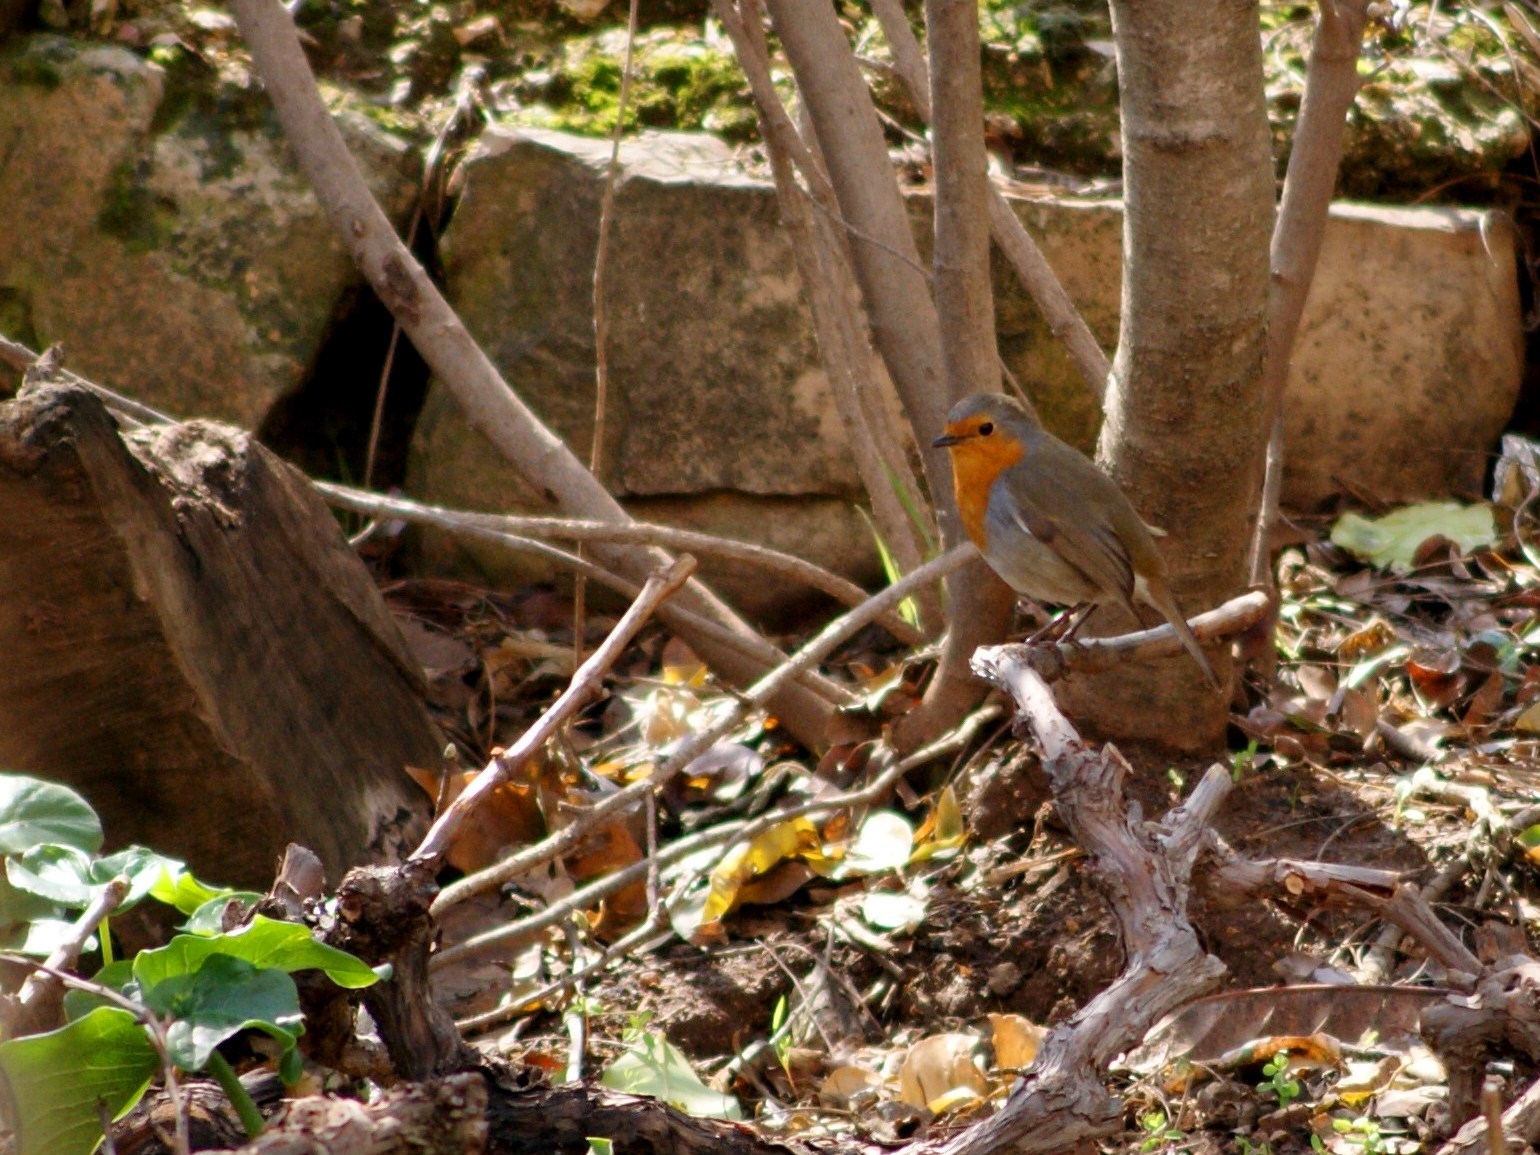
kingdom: Animalia
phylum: Chordata
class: Aves
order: Passeriformes
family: Muscicapidae
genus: Erithacus
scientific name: Erithacus rubecula
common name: European robin
